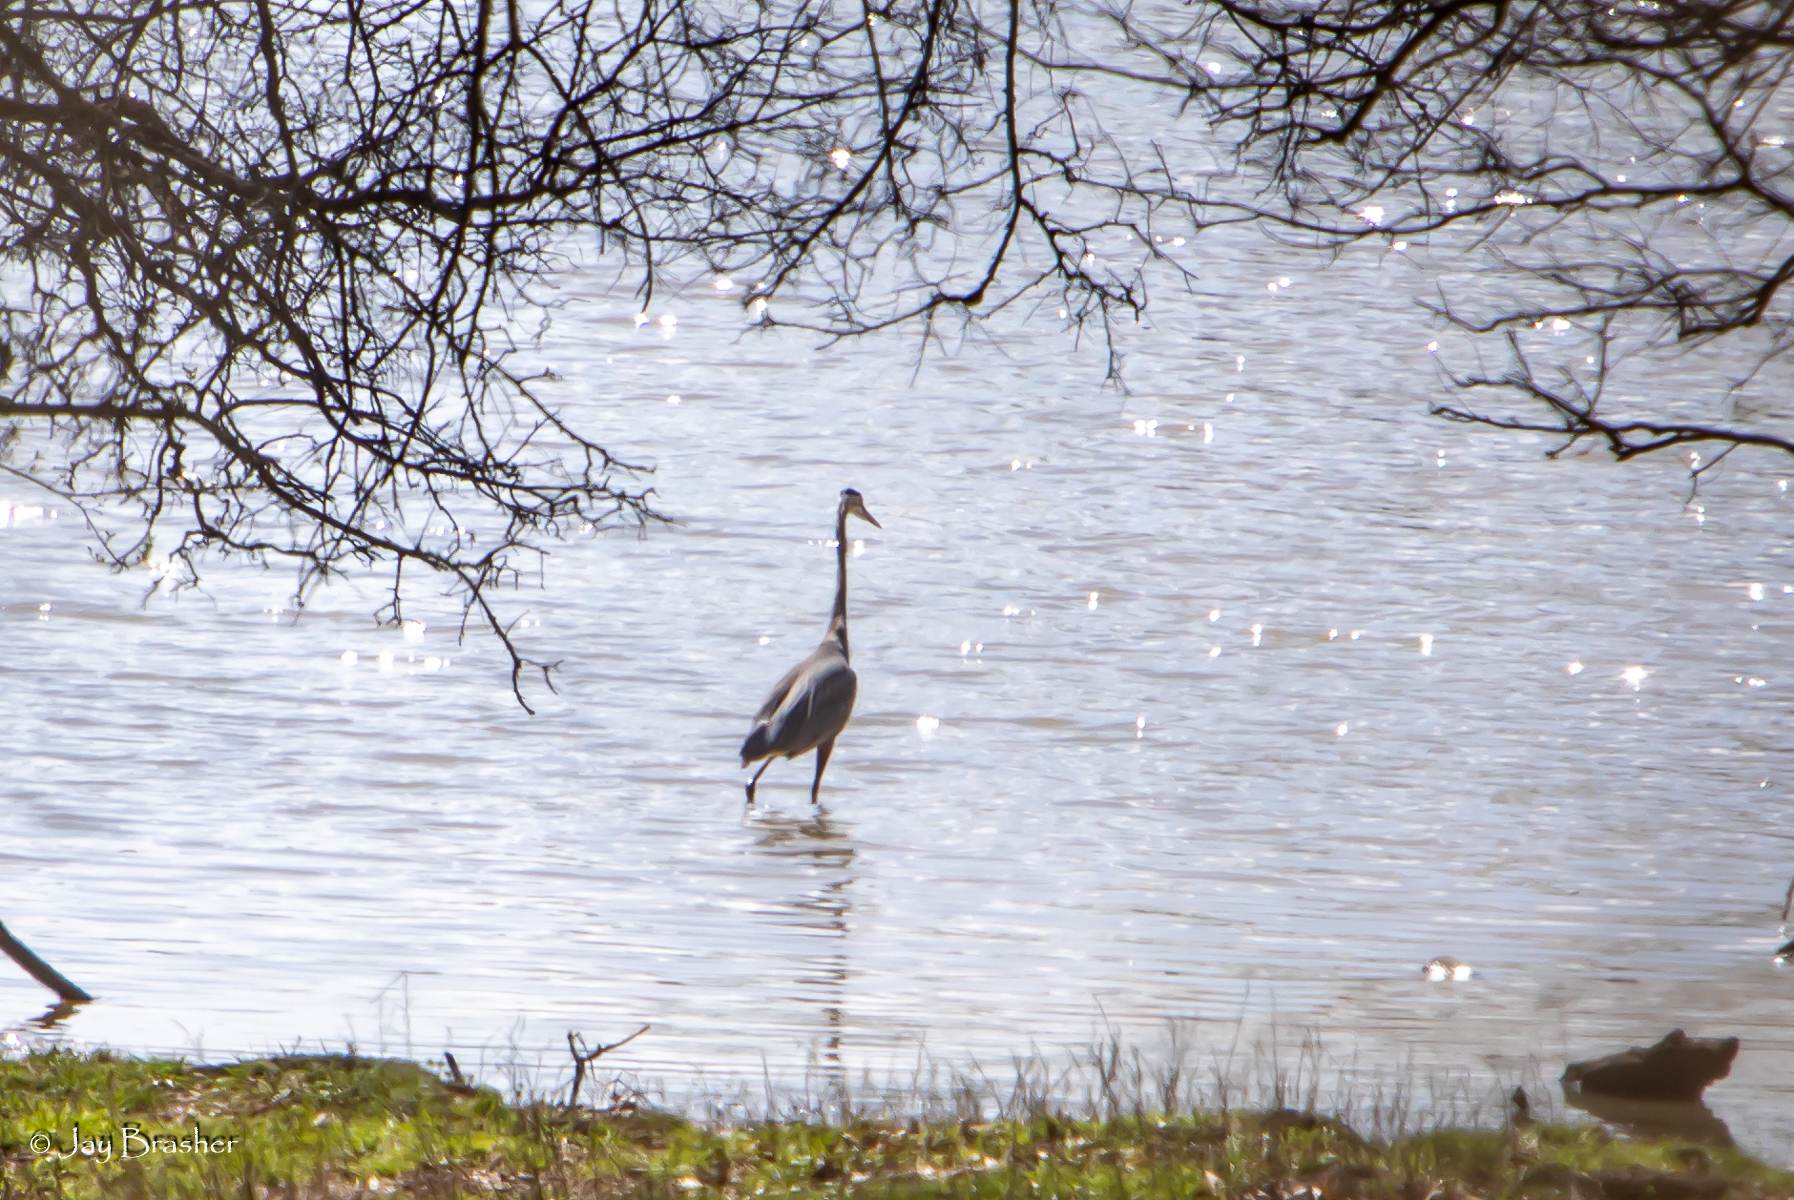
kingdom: Animalia
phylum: Chordata
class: Aves
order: Pelecaniformes
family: Ardeidae
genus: Ardea
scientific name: Ardea herodias
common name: Great blue heron
